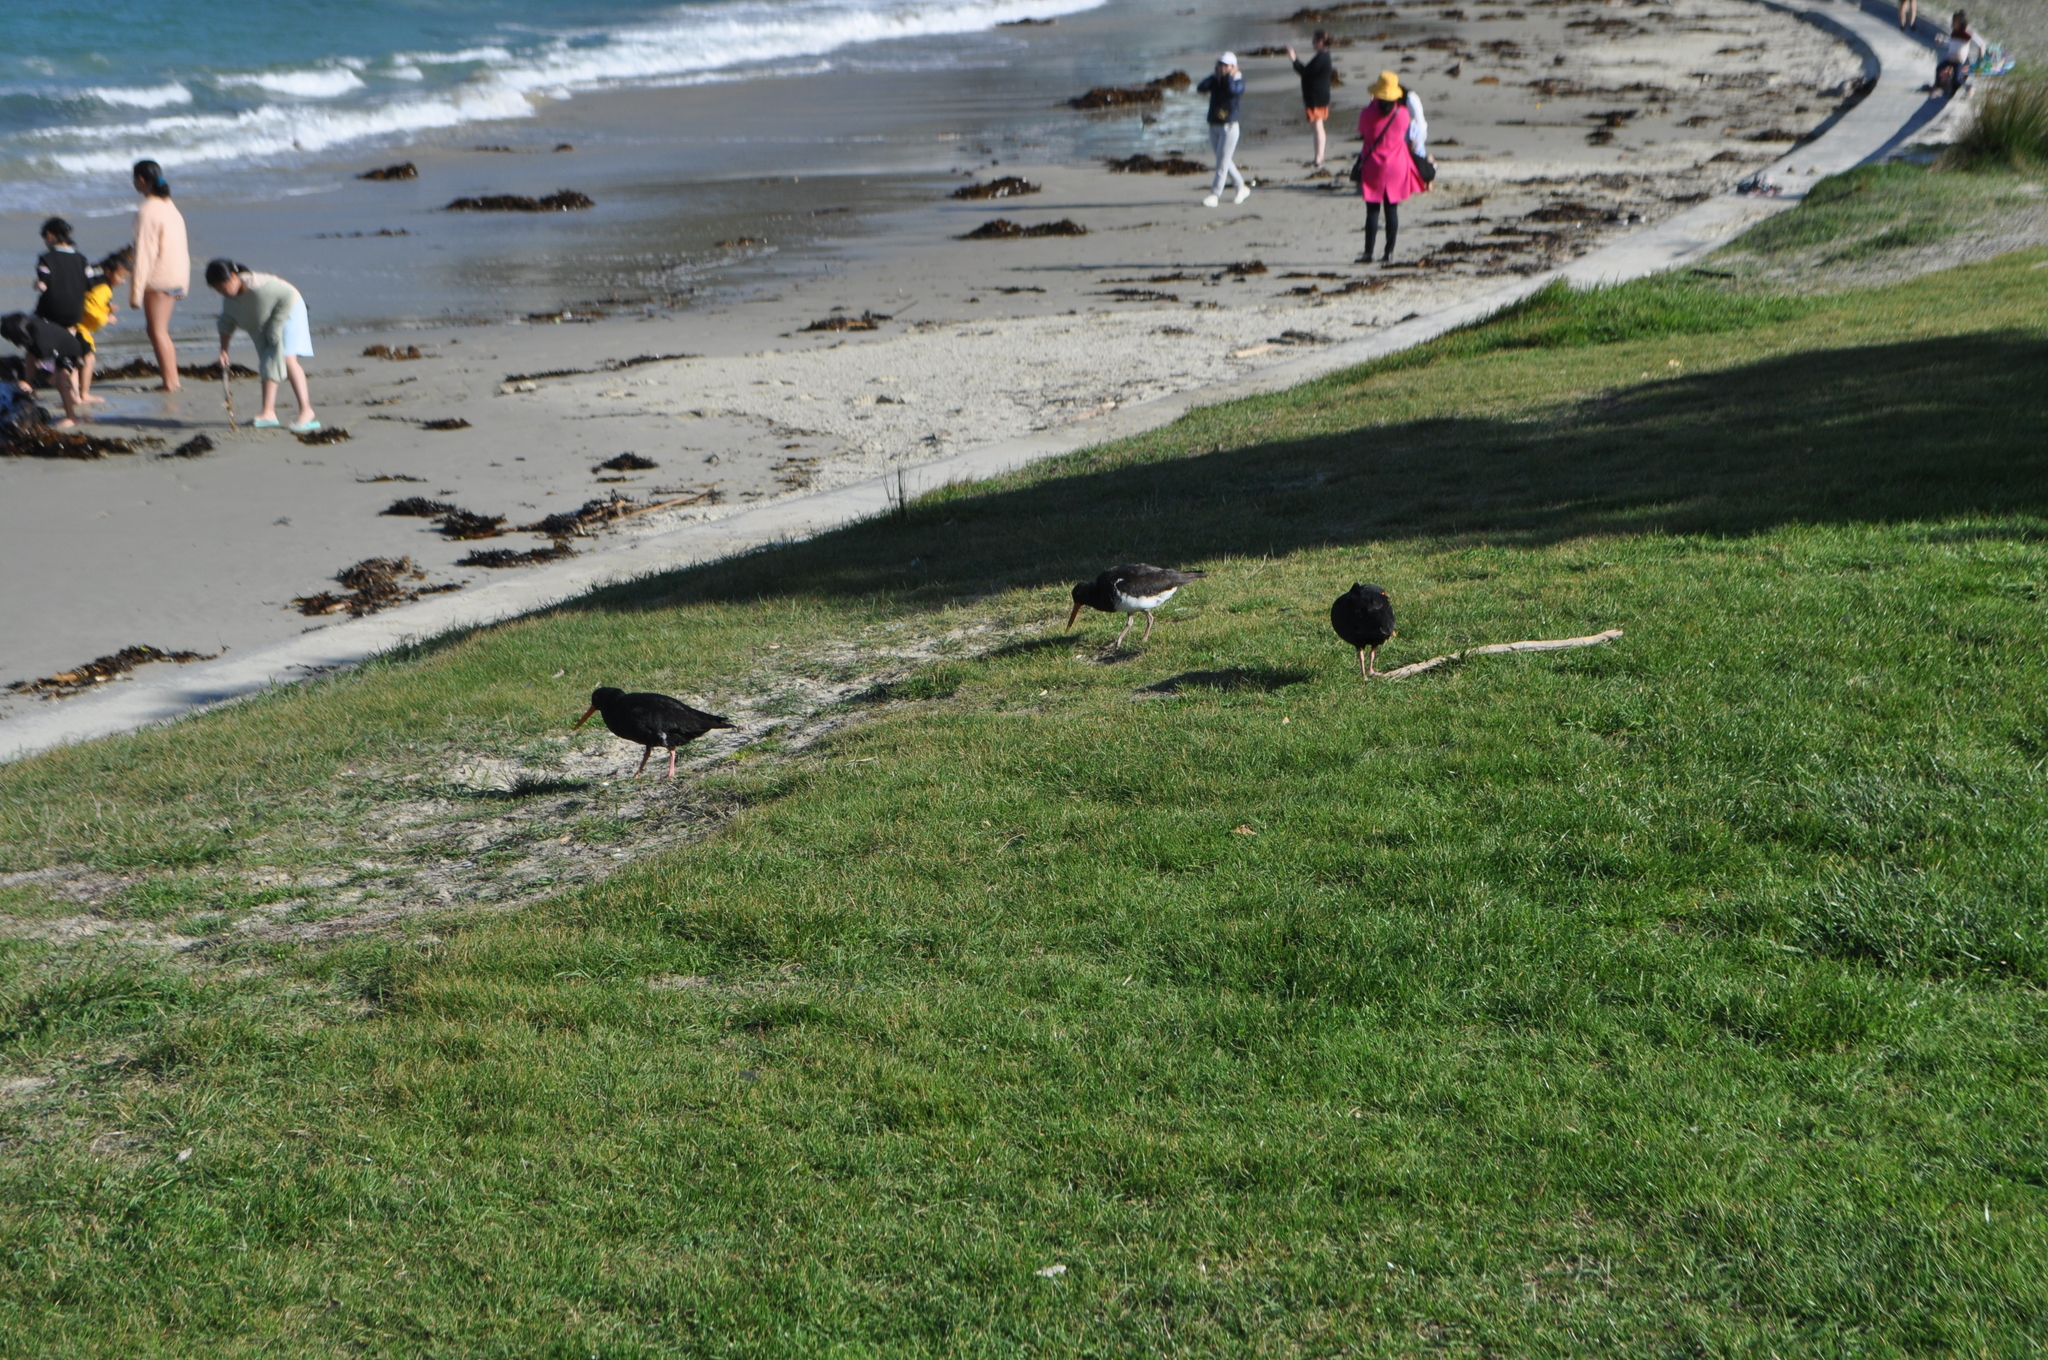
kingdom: Animalia
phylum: Chordata
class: Aves
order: Charadriiformes
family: Haematopodidae
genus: Haematopus
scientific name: Haematopus unicolor
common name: Variable oystercatcher
